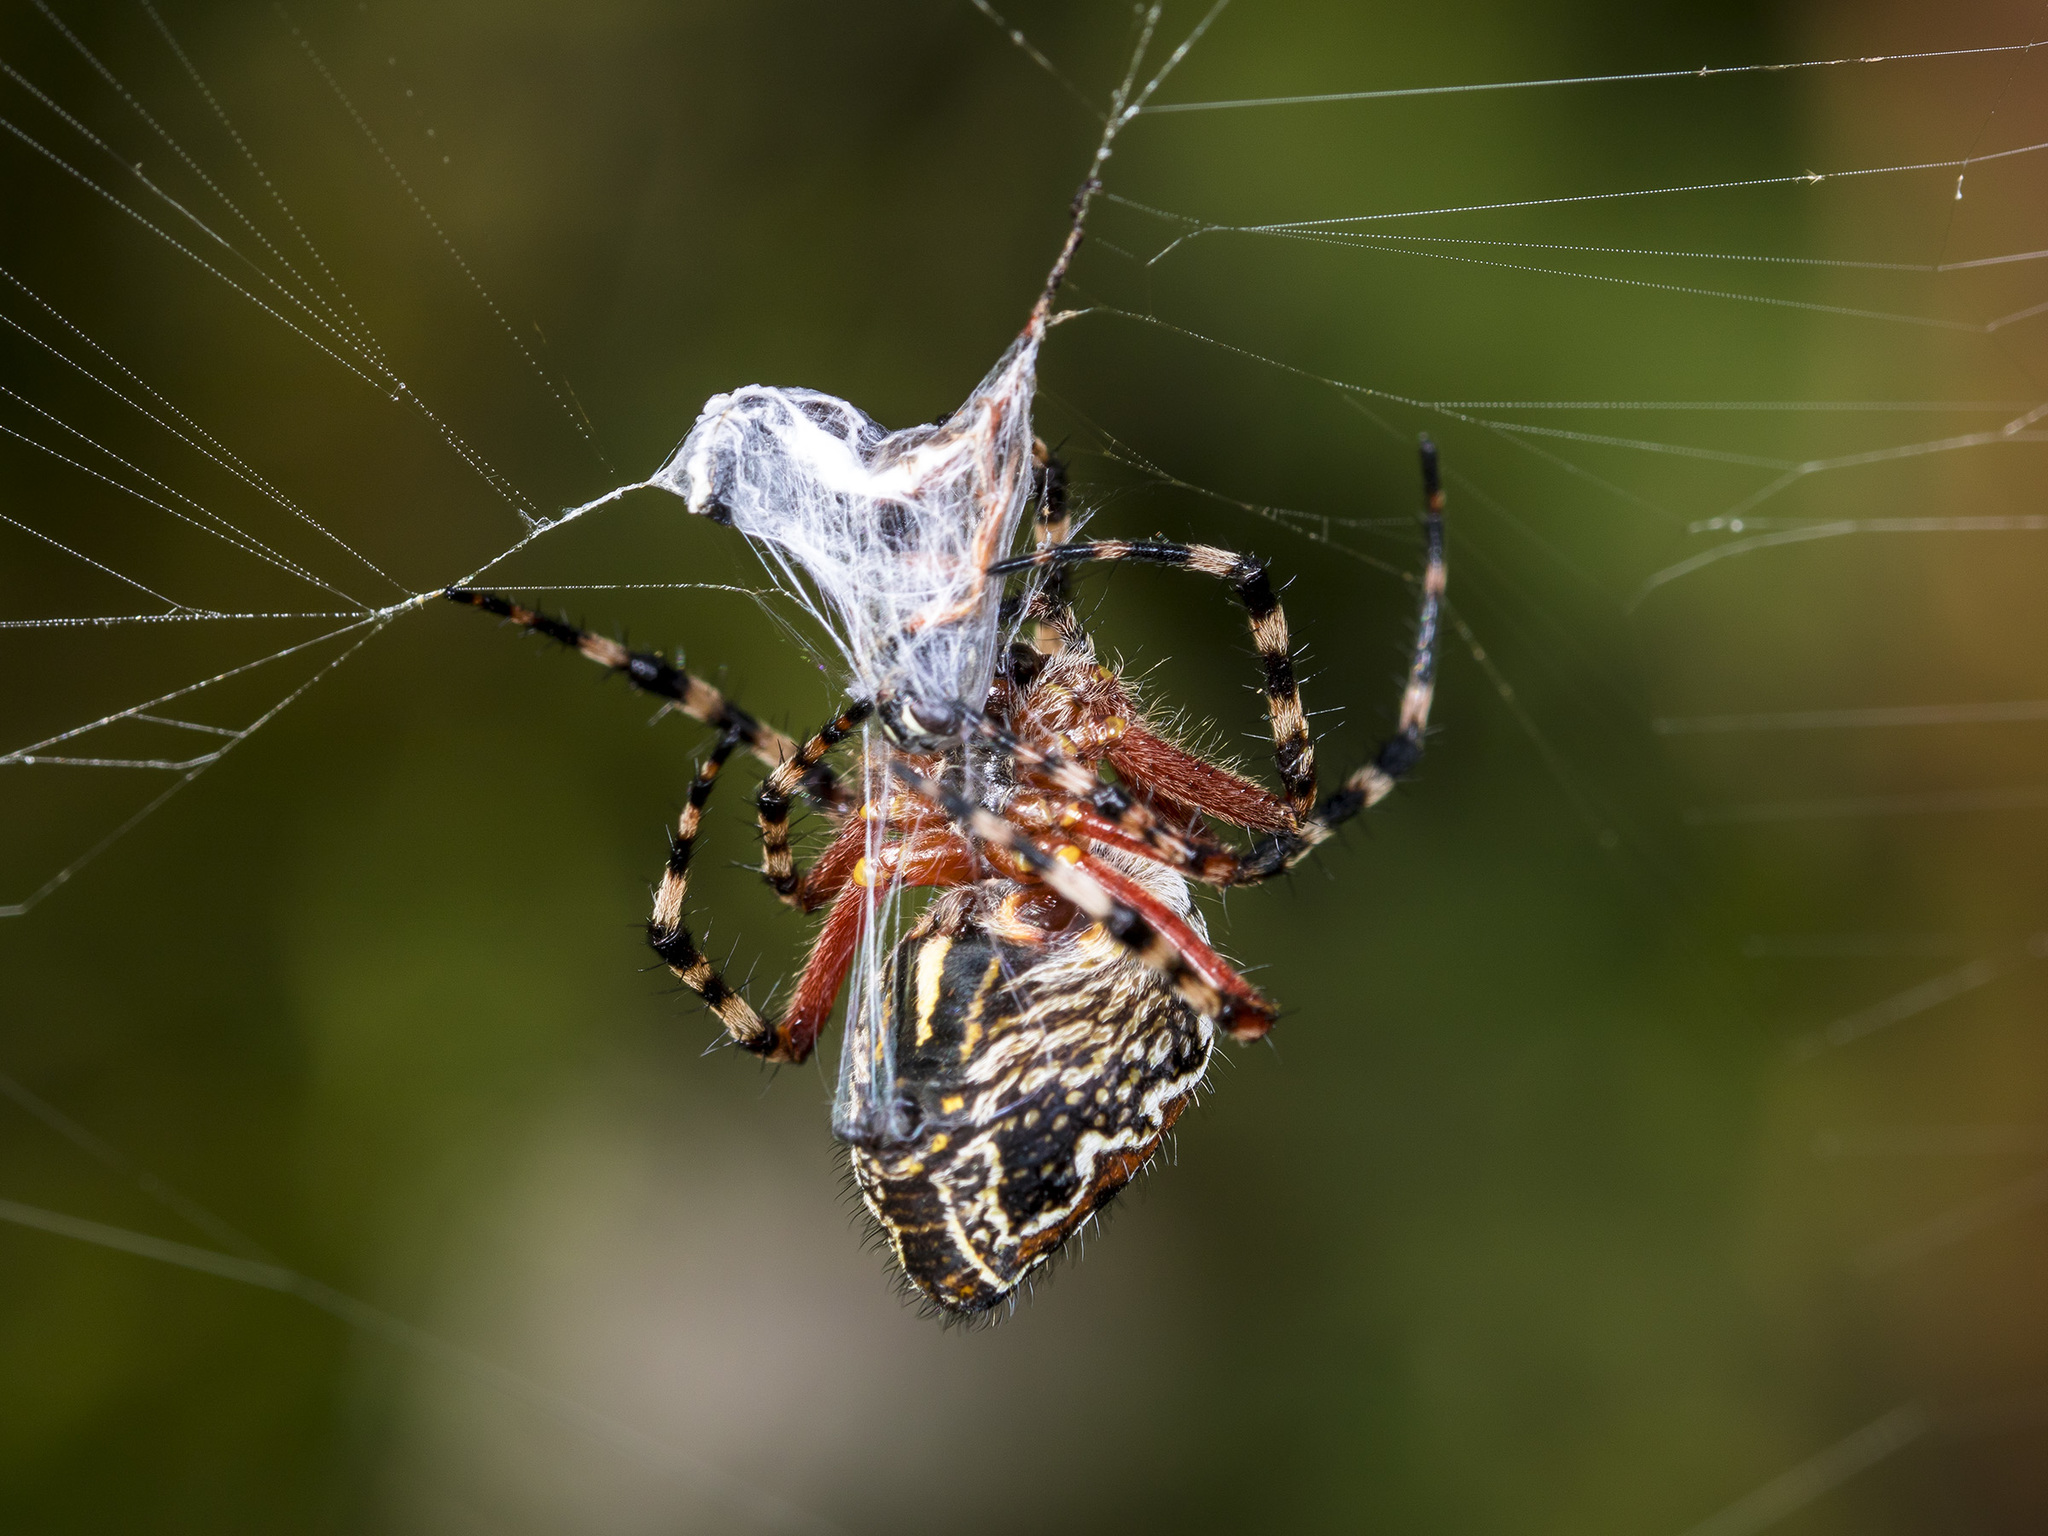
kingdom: Animalia
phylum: Arthropoda
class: Arachnida
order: Araneae
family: Araneidae
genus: Aculepeira
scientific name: Aculepeira packardi
